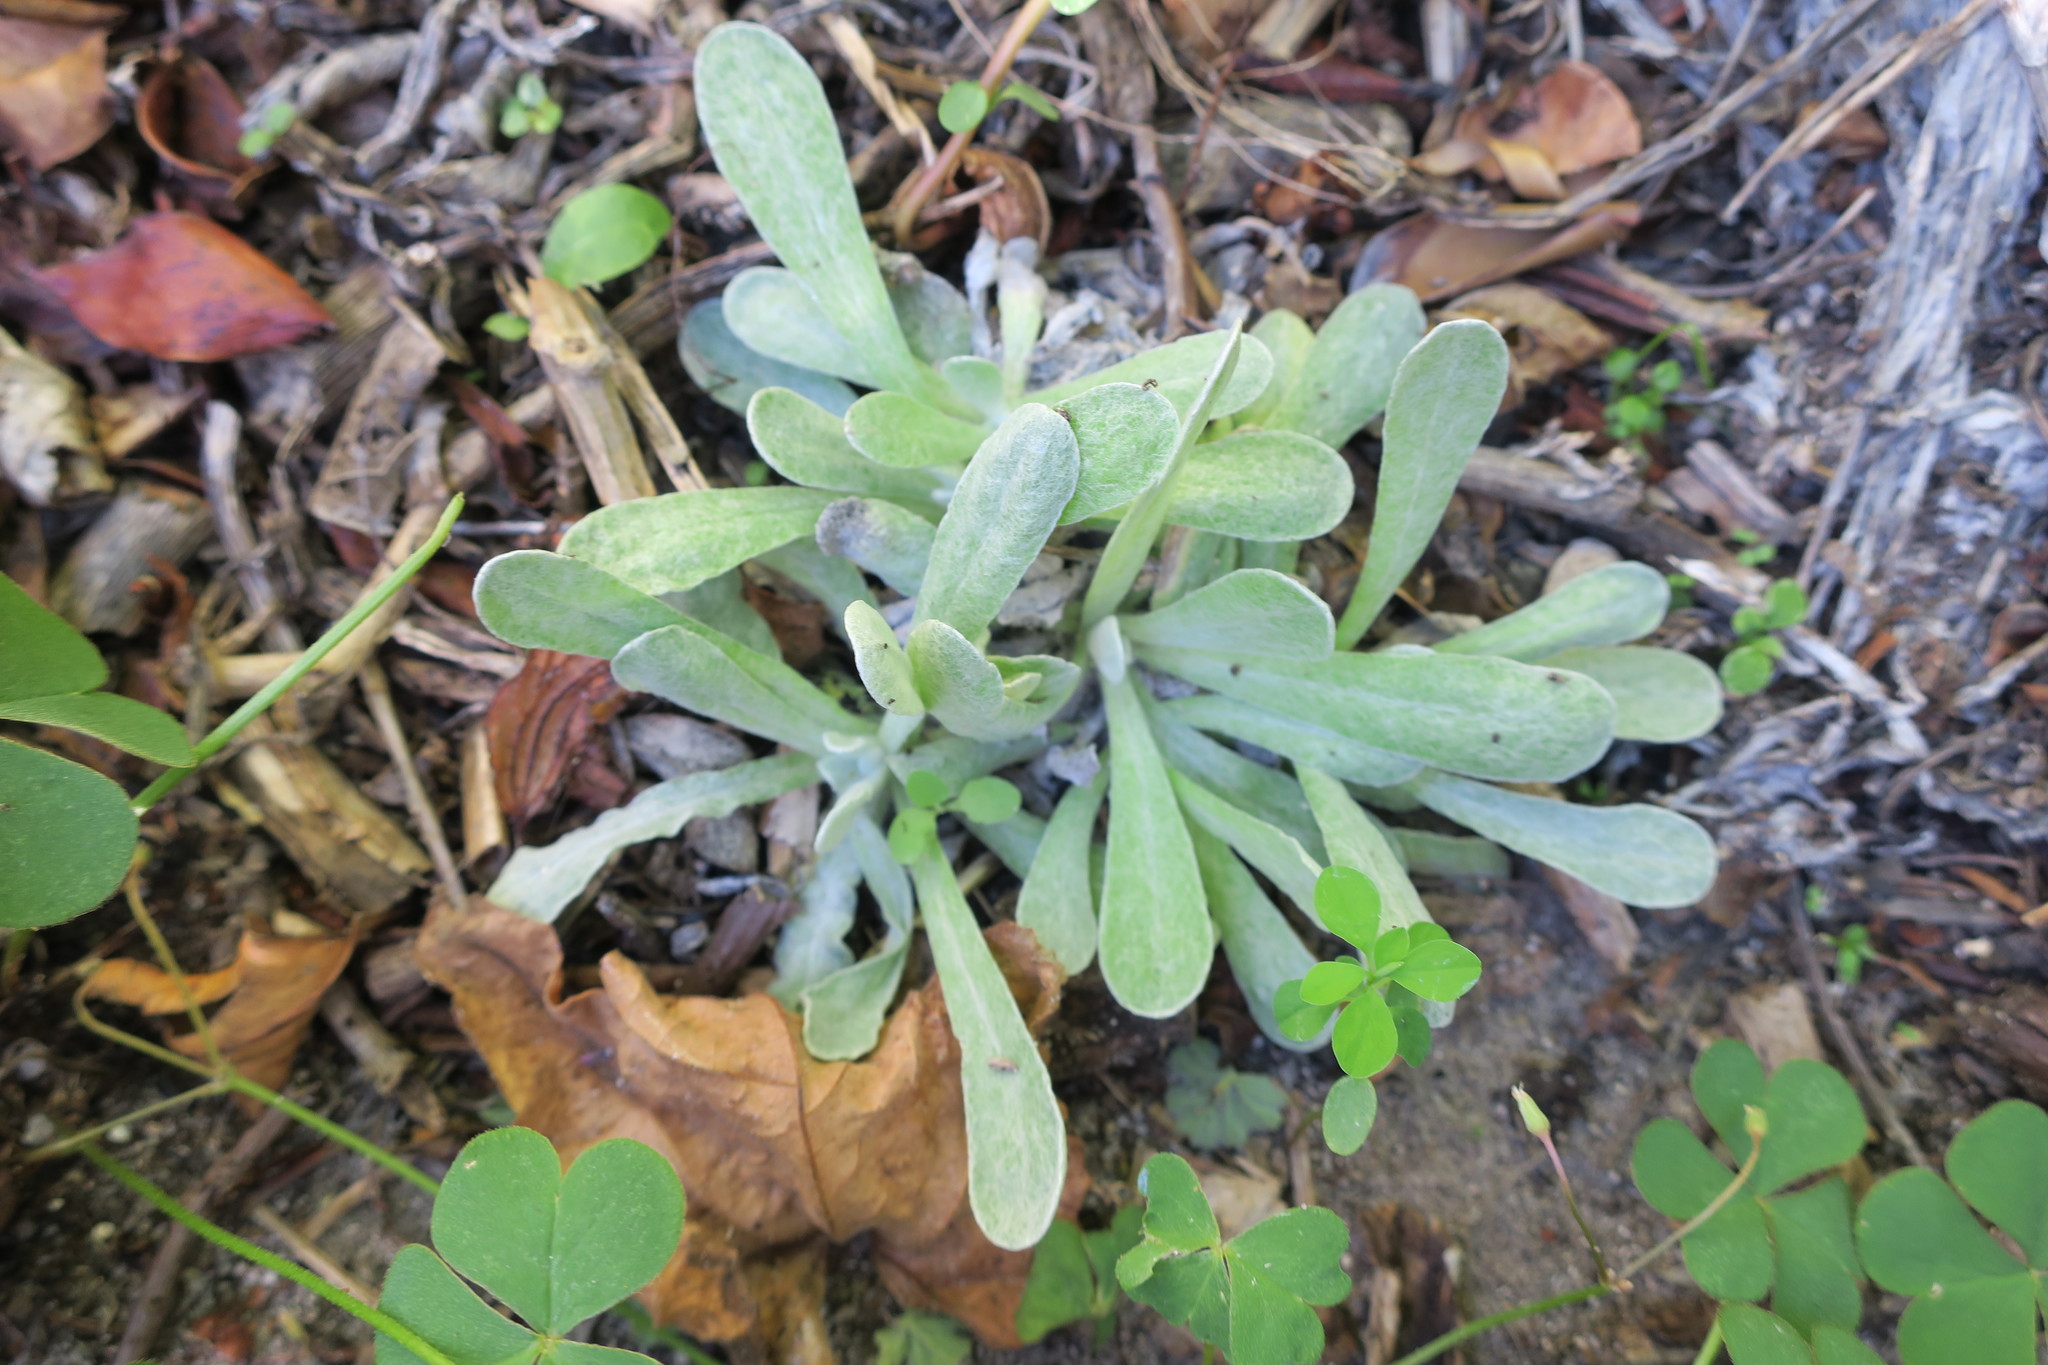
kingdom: Plantae
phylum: Tracheophyta
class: Magnoliopsida
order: Asterales
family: Asteraceae
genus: Pseudognaphalium
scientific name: Pseudognaphalium undulatum
